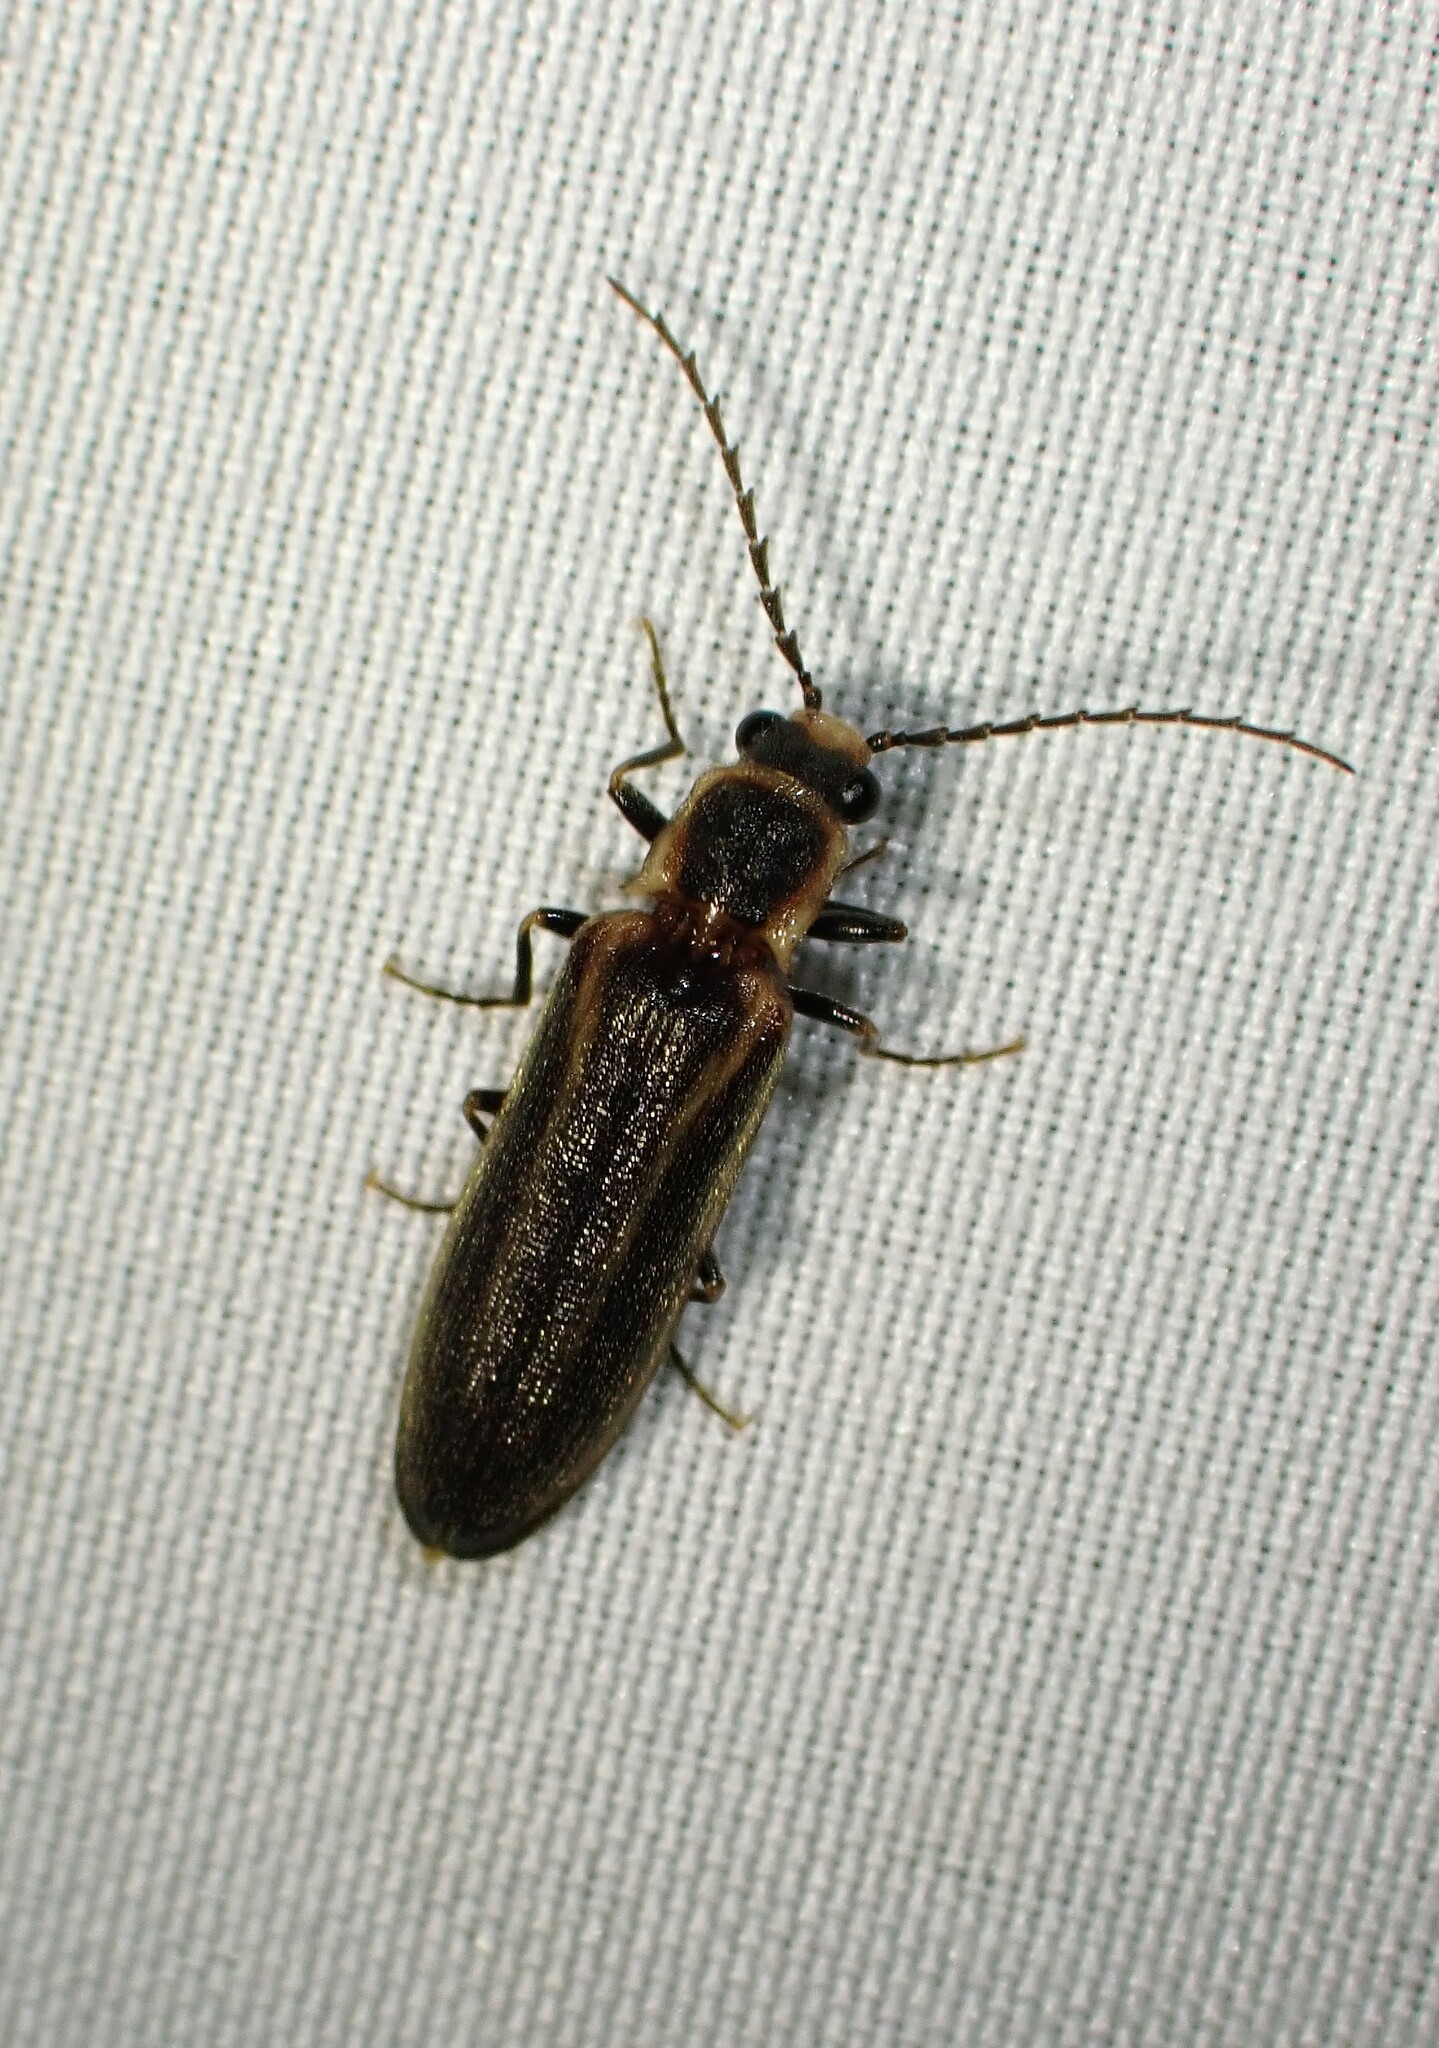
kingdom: Animalia
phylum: Arthropoda
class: Insecta
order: Coleoptera
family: Elateridae
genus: Denticollis
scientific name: Denticollis denticornis
